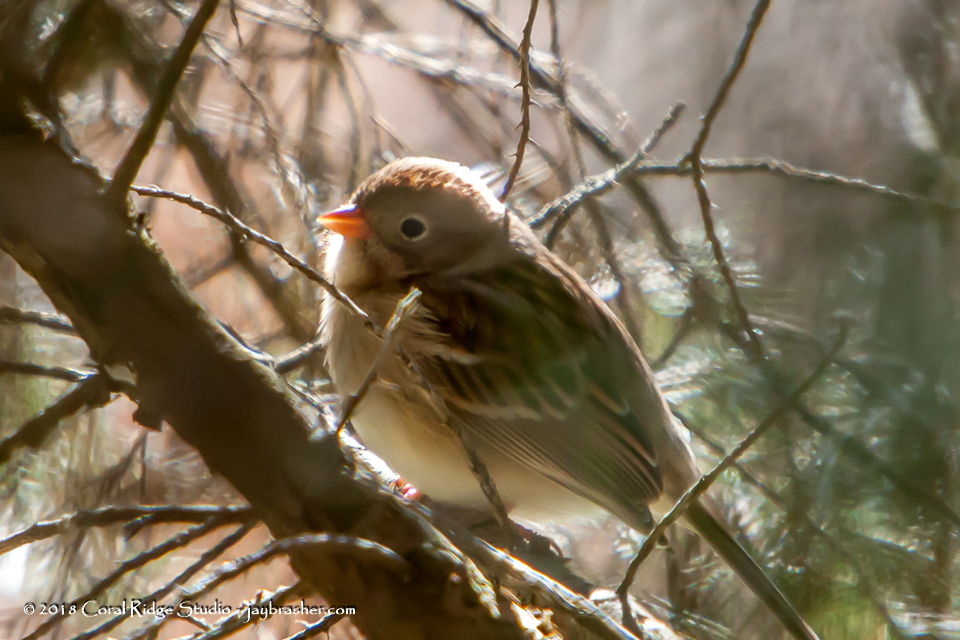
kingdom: Animalia
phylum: Chordata
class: Aves
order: Passeriformes
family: Passerellidae
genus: Spizella
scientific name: Spizella pusilla
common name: Field sparrow
